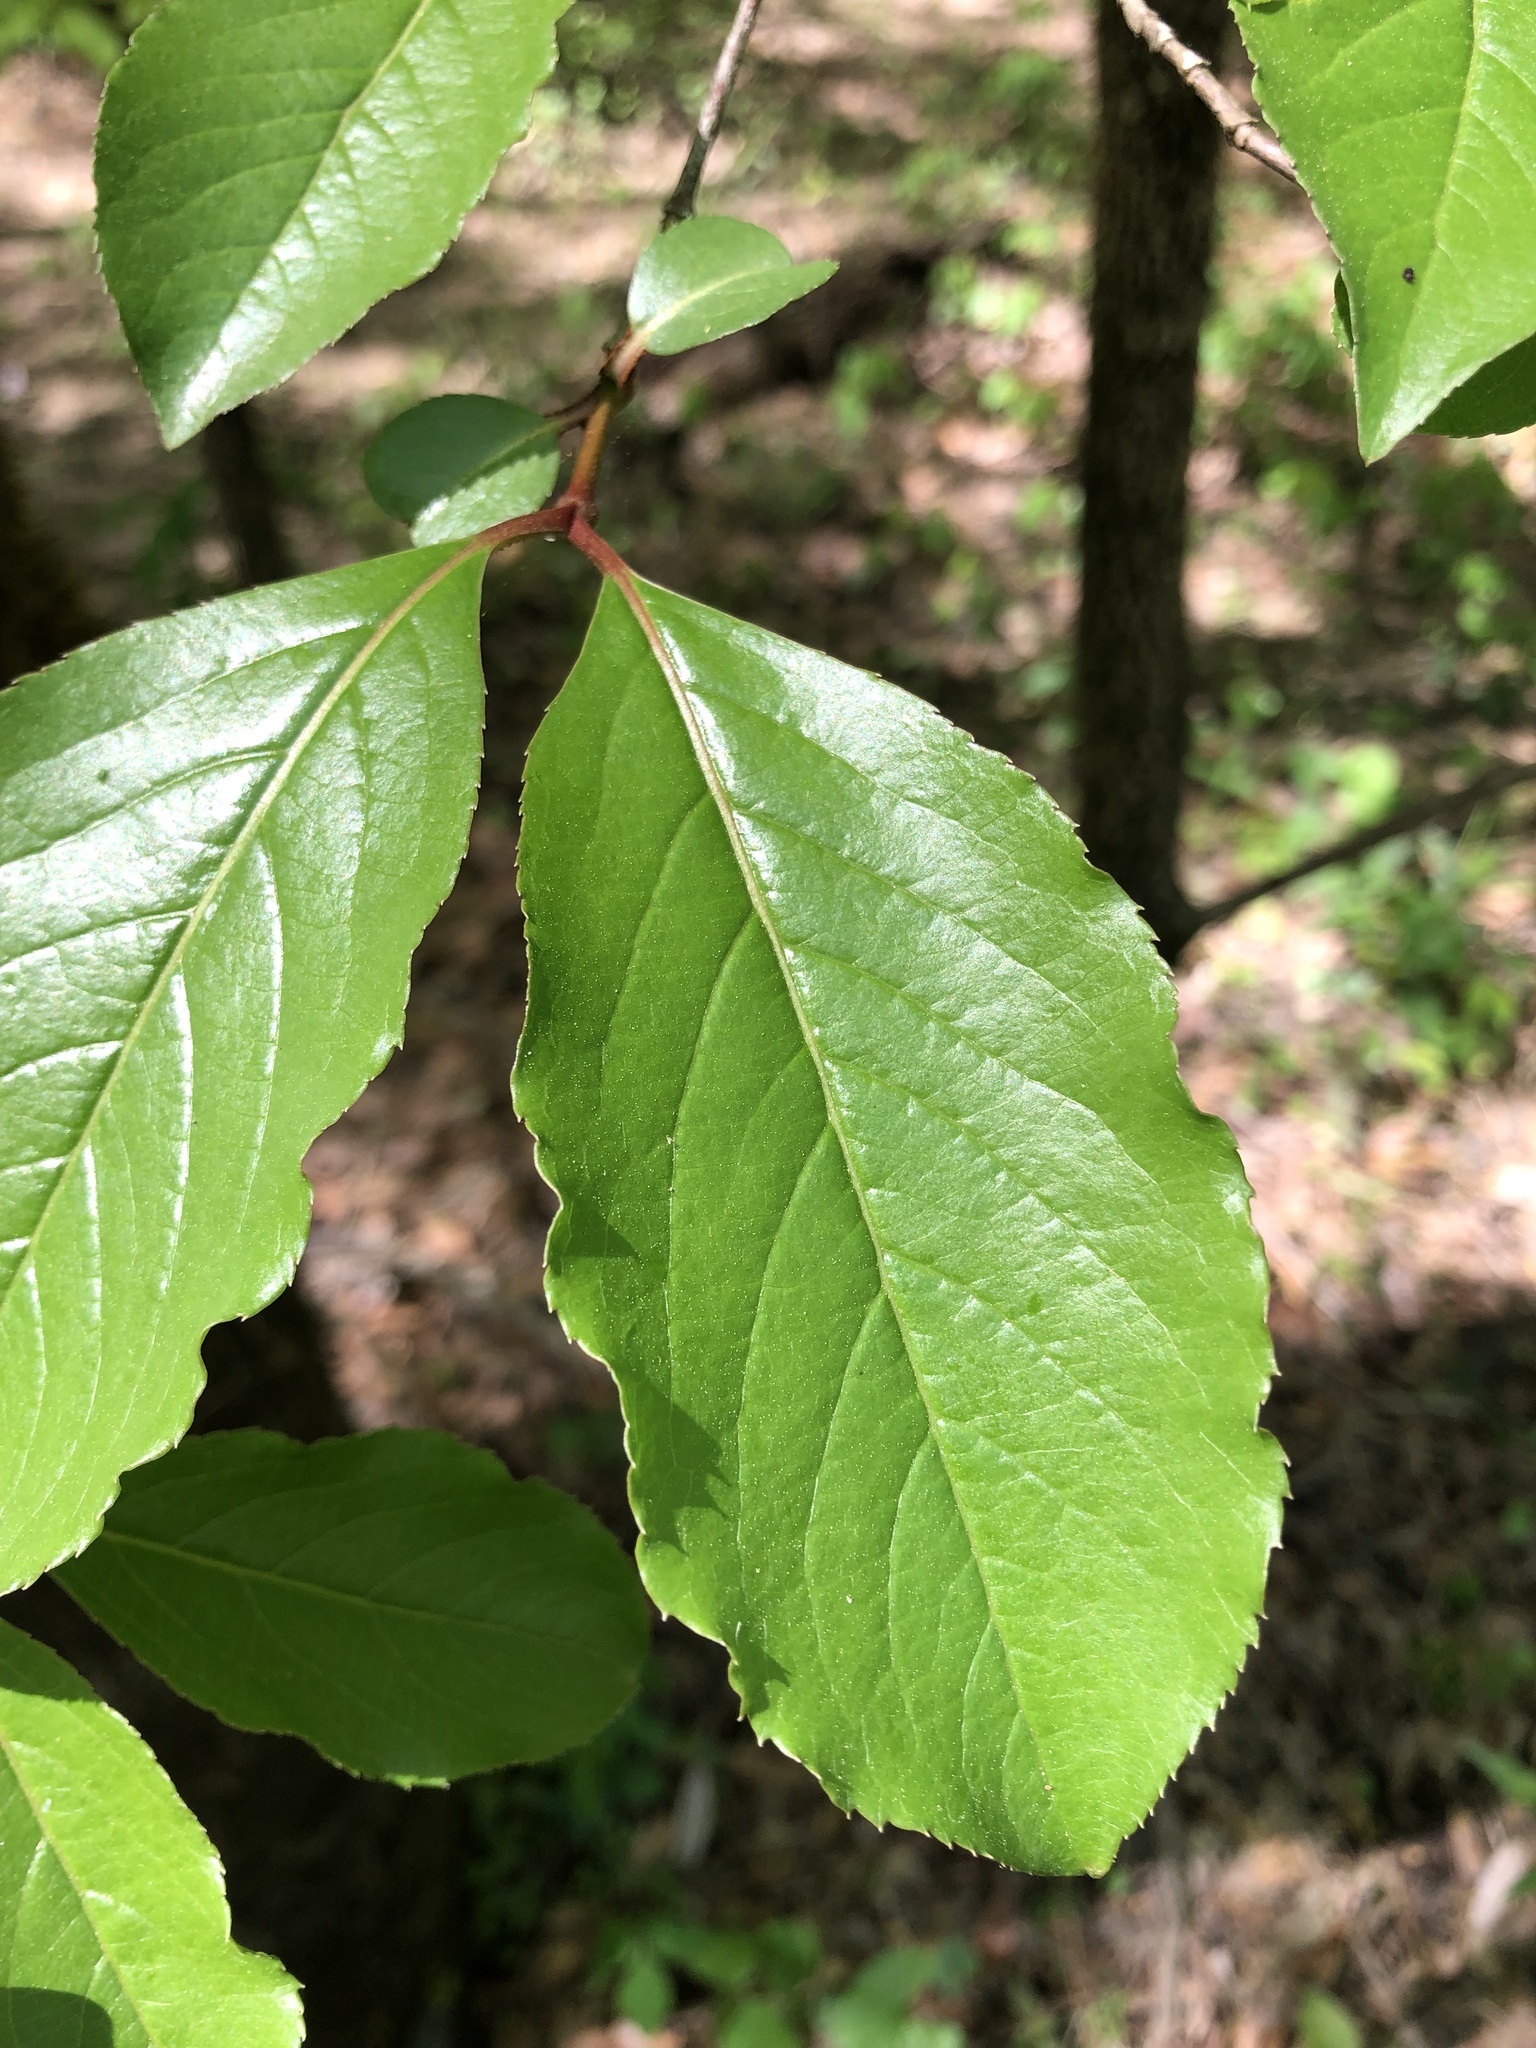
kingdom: Plantae
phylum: Tracheophyta
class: Magnoliopsida
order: Dipsacales
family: Viburnaceae
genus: Viburnum
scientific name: Viburnum rufidulum
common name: Blue haw
